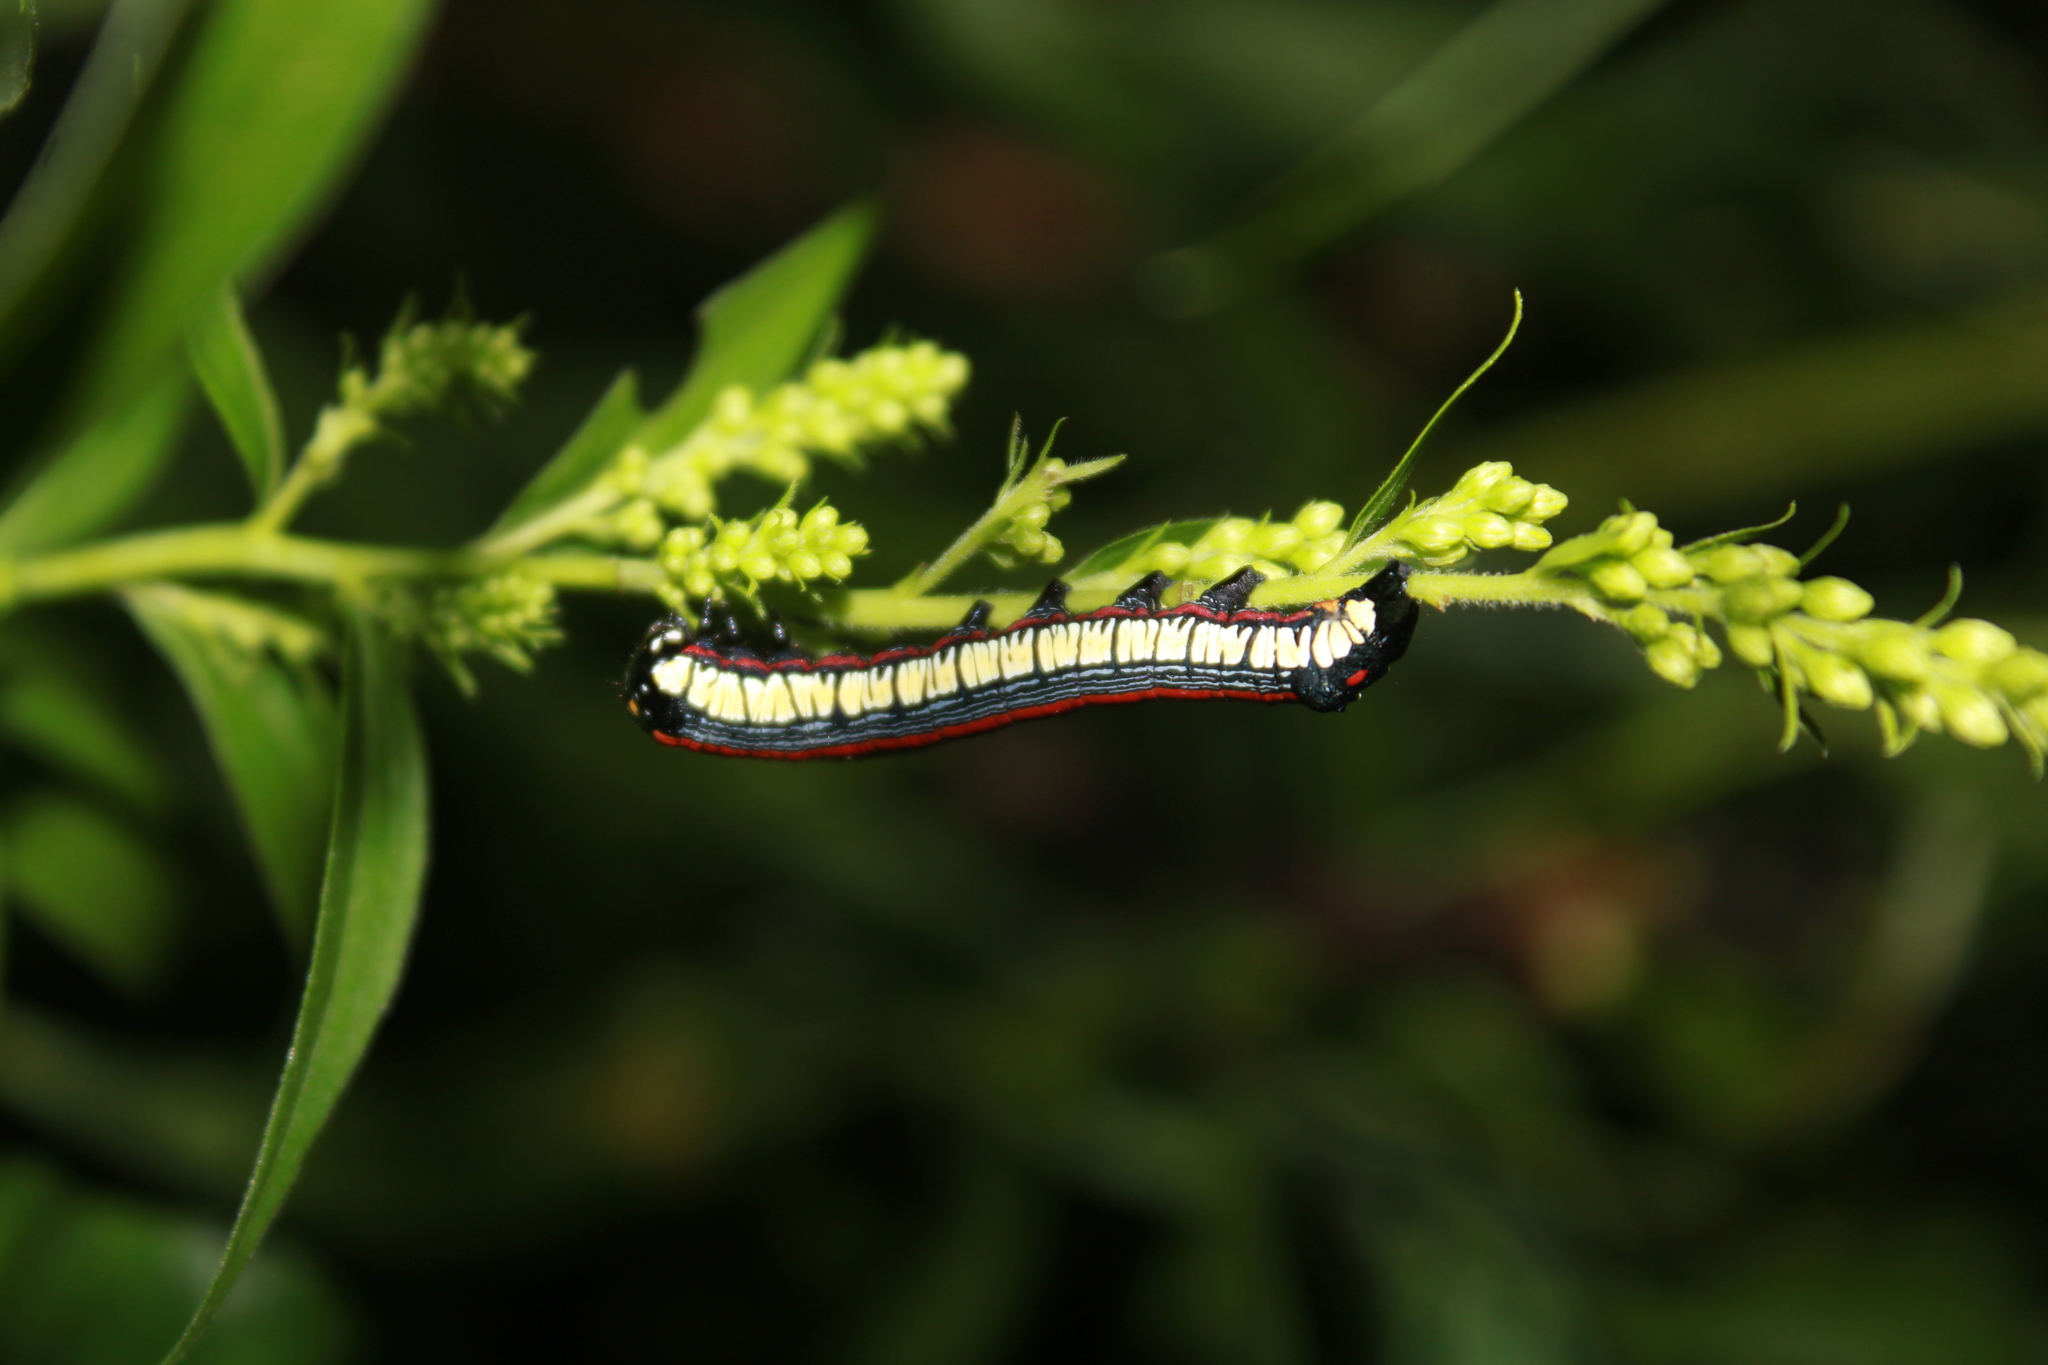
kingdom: Animalia
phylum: Arthropoda
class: Insecta
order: Lepidoptera
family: Noctuidae
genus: Cucullia
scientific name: Cucullia convexipennis
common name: Brown-hooded owlet
